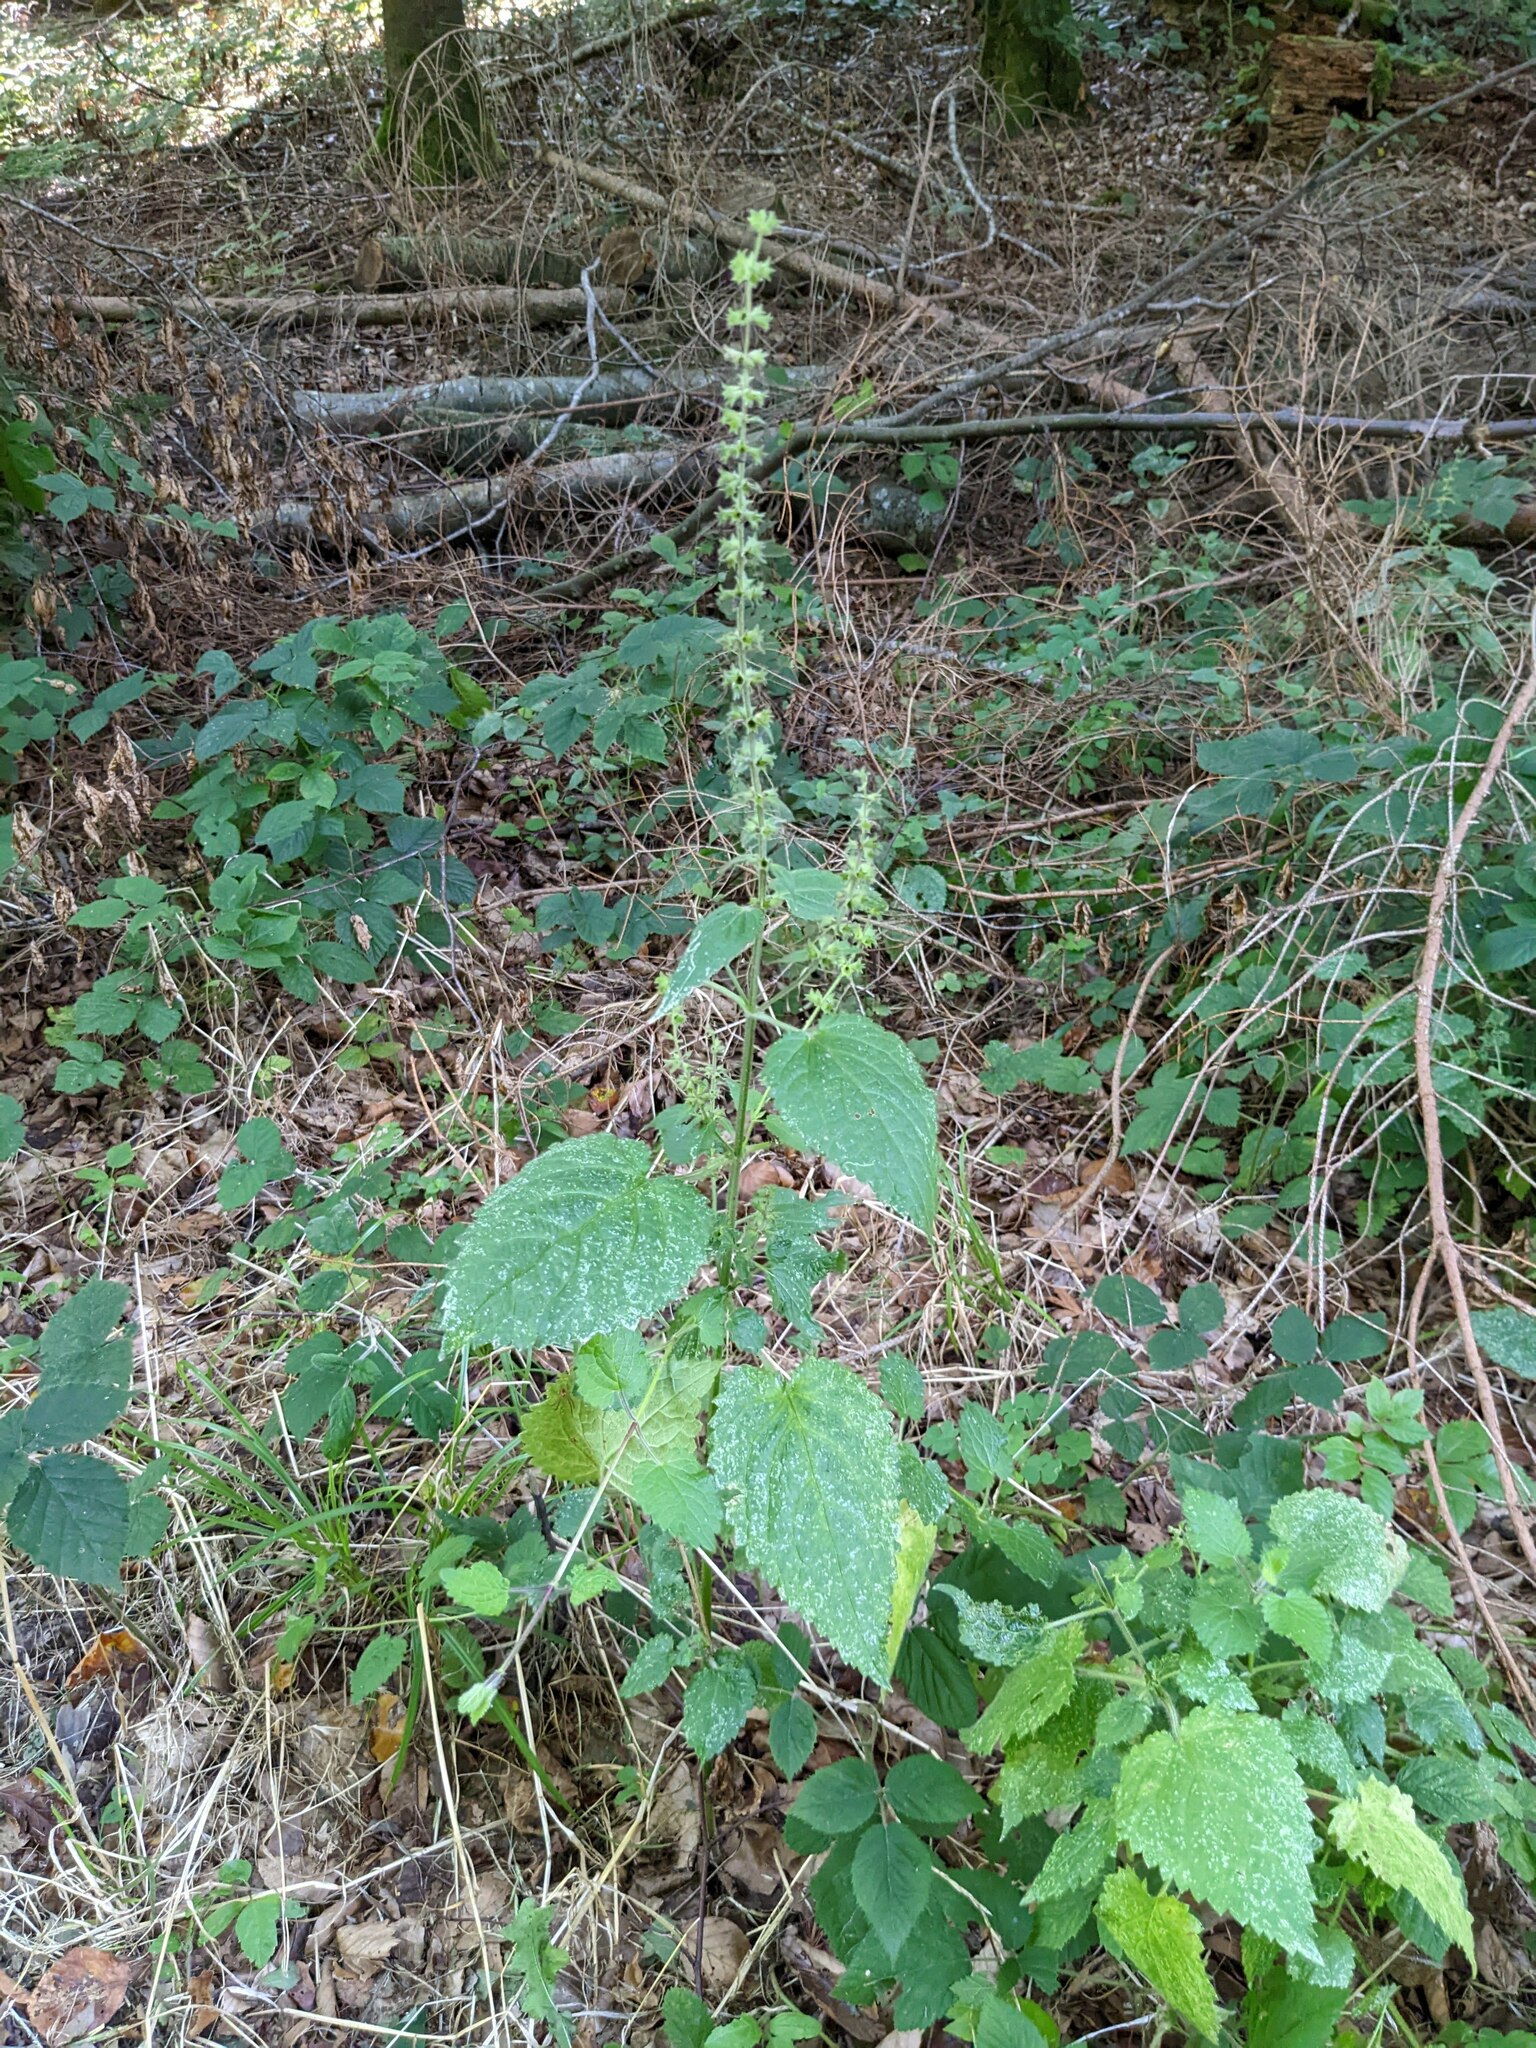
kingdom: Plantae
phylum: Tracheophyta
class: Magnoliopsida
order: Lamiales
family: Lamiaceae
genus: Stachys
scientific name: Stachys sylvatica
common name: Hedge woundwort
